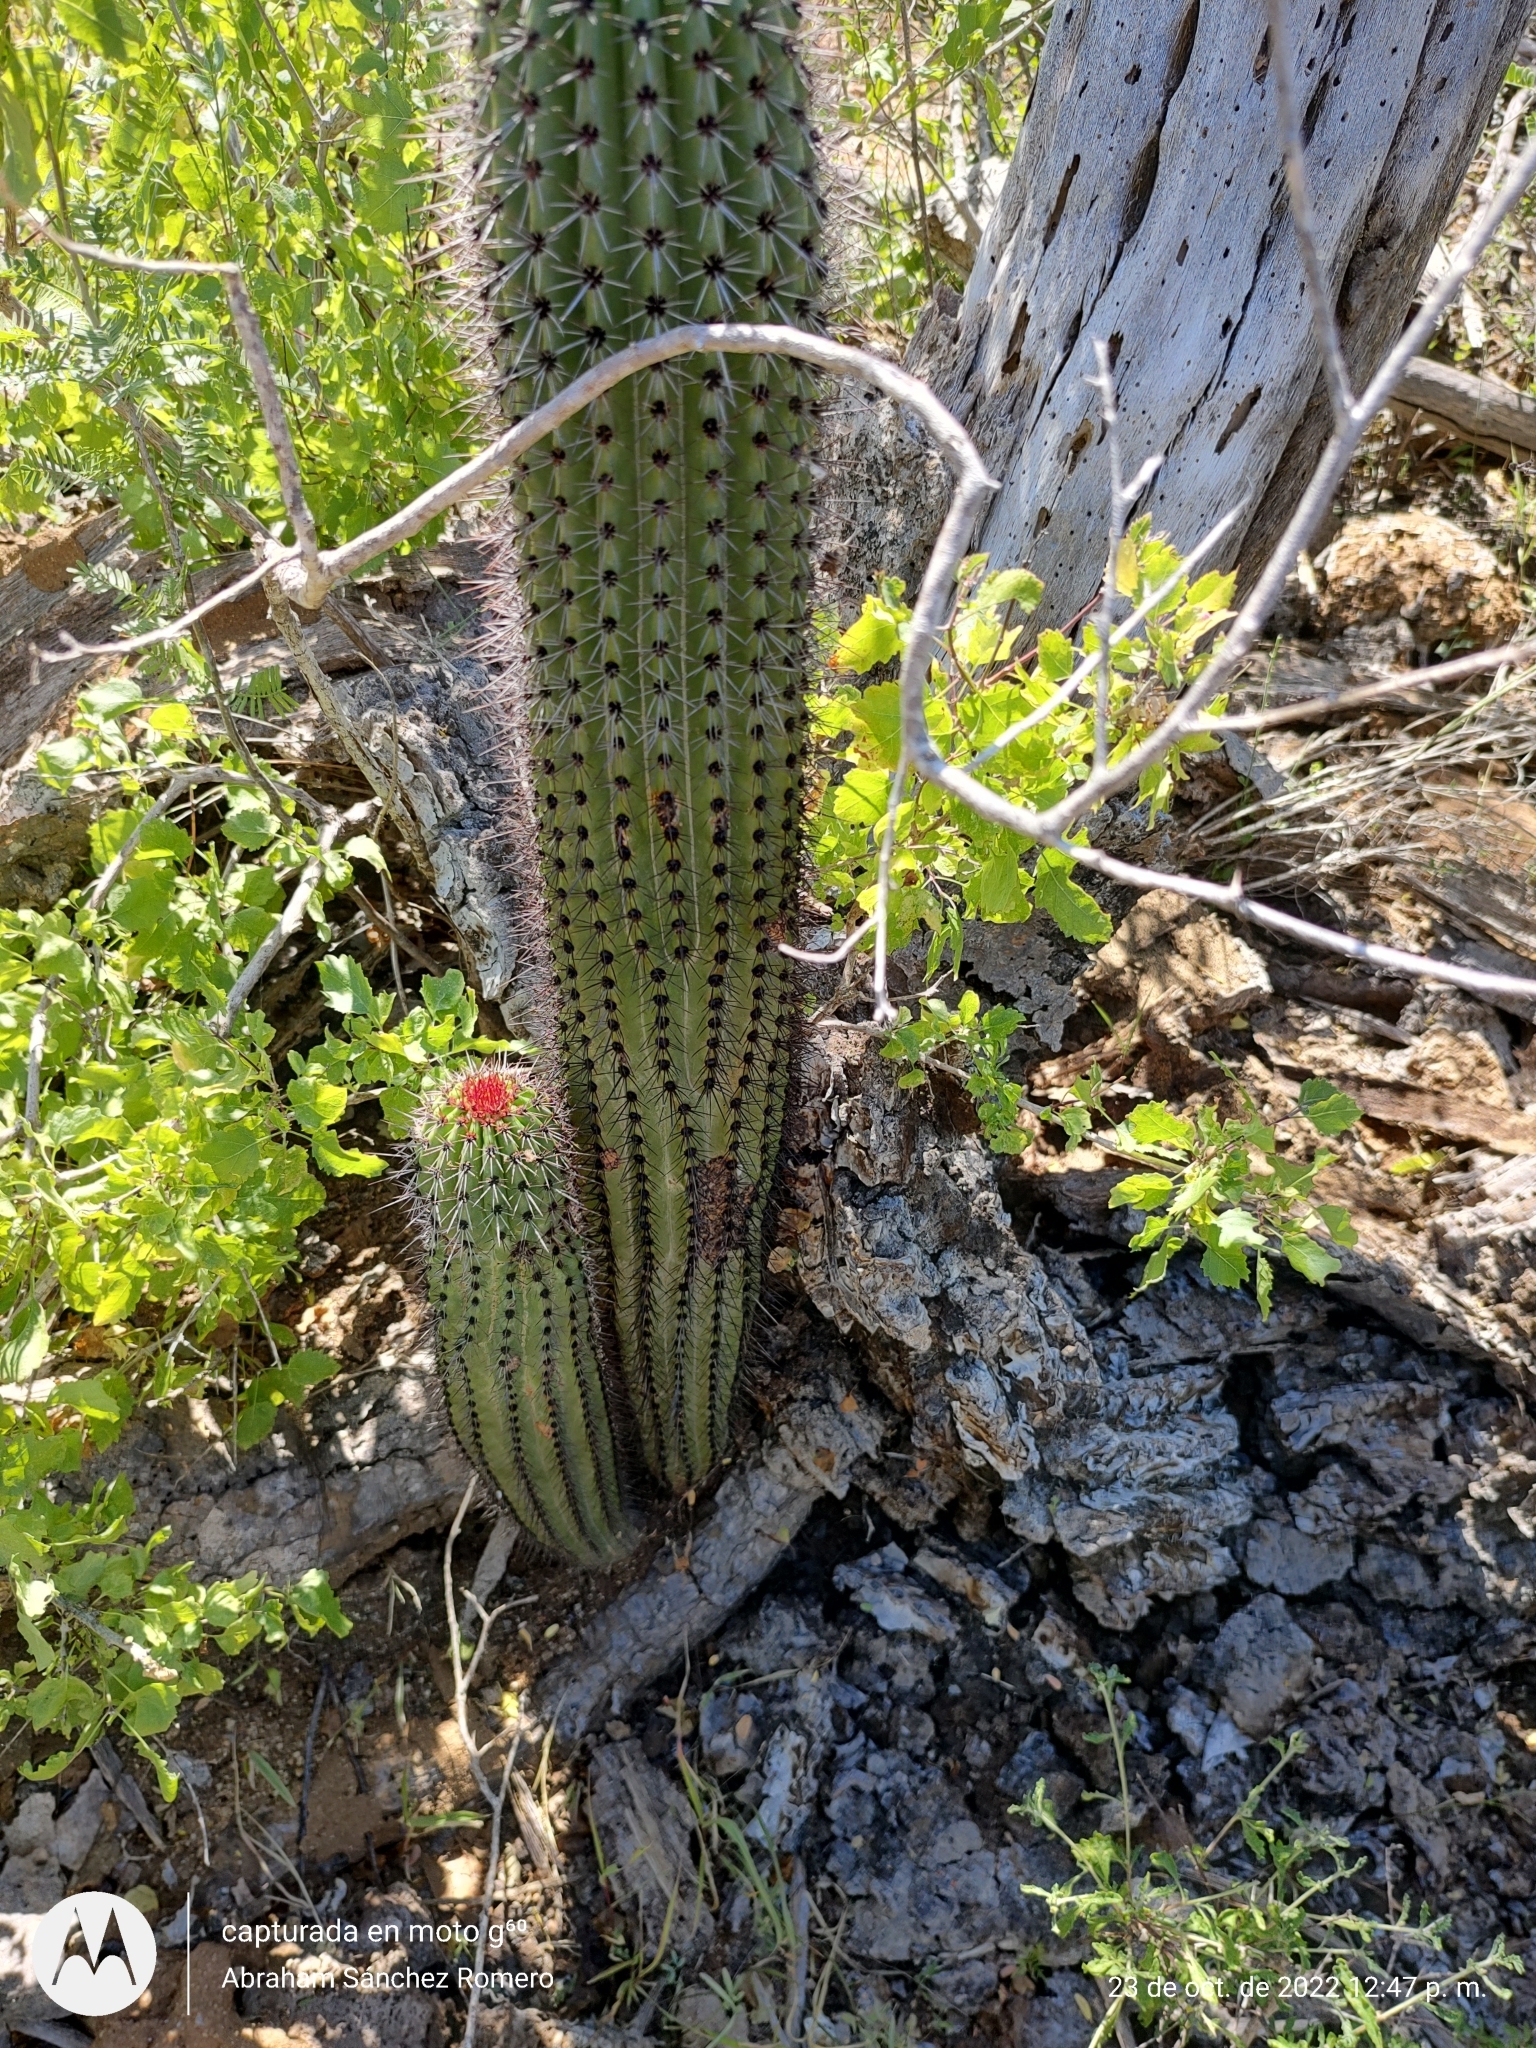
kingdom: Plantae
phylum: Tracheophyta
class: Magnoliopsida
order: Caryophyllales
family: Cactaceae
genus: Stenocereus
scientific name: Stenocereus thurberi
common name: Organ pipe cactus
